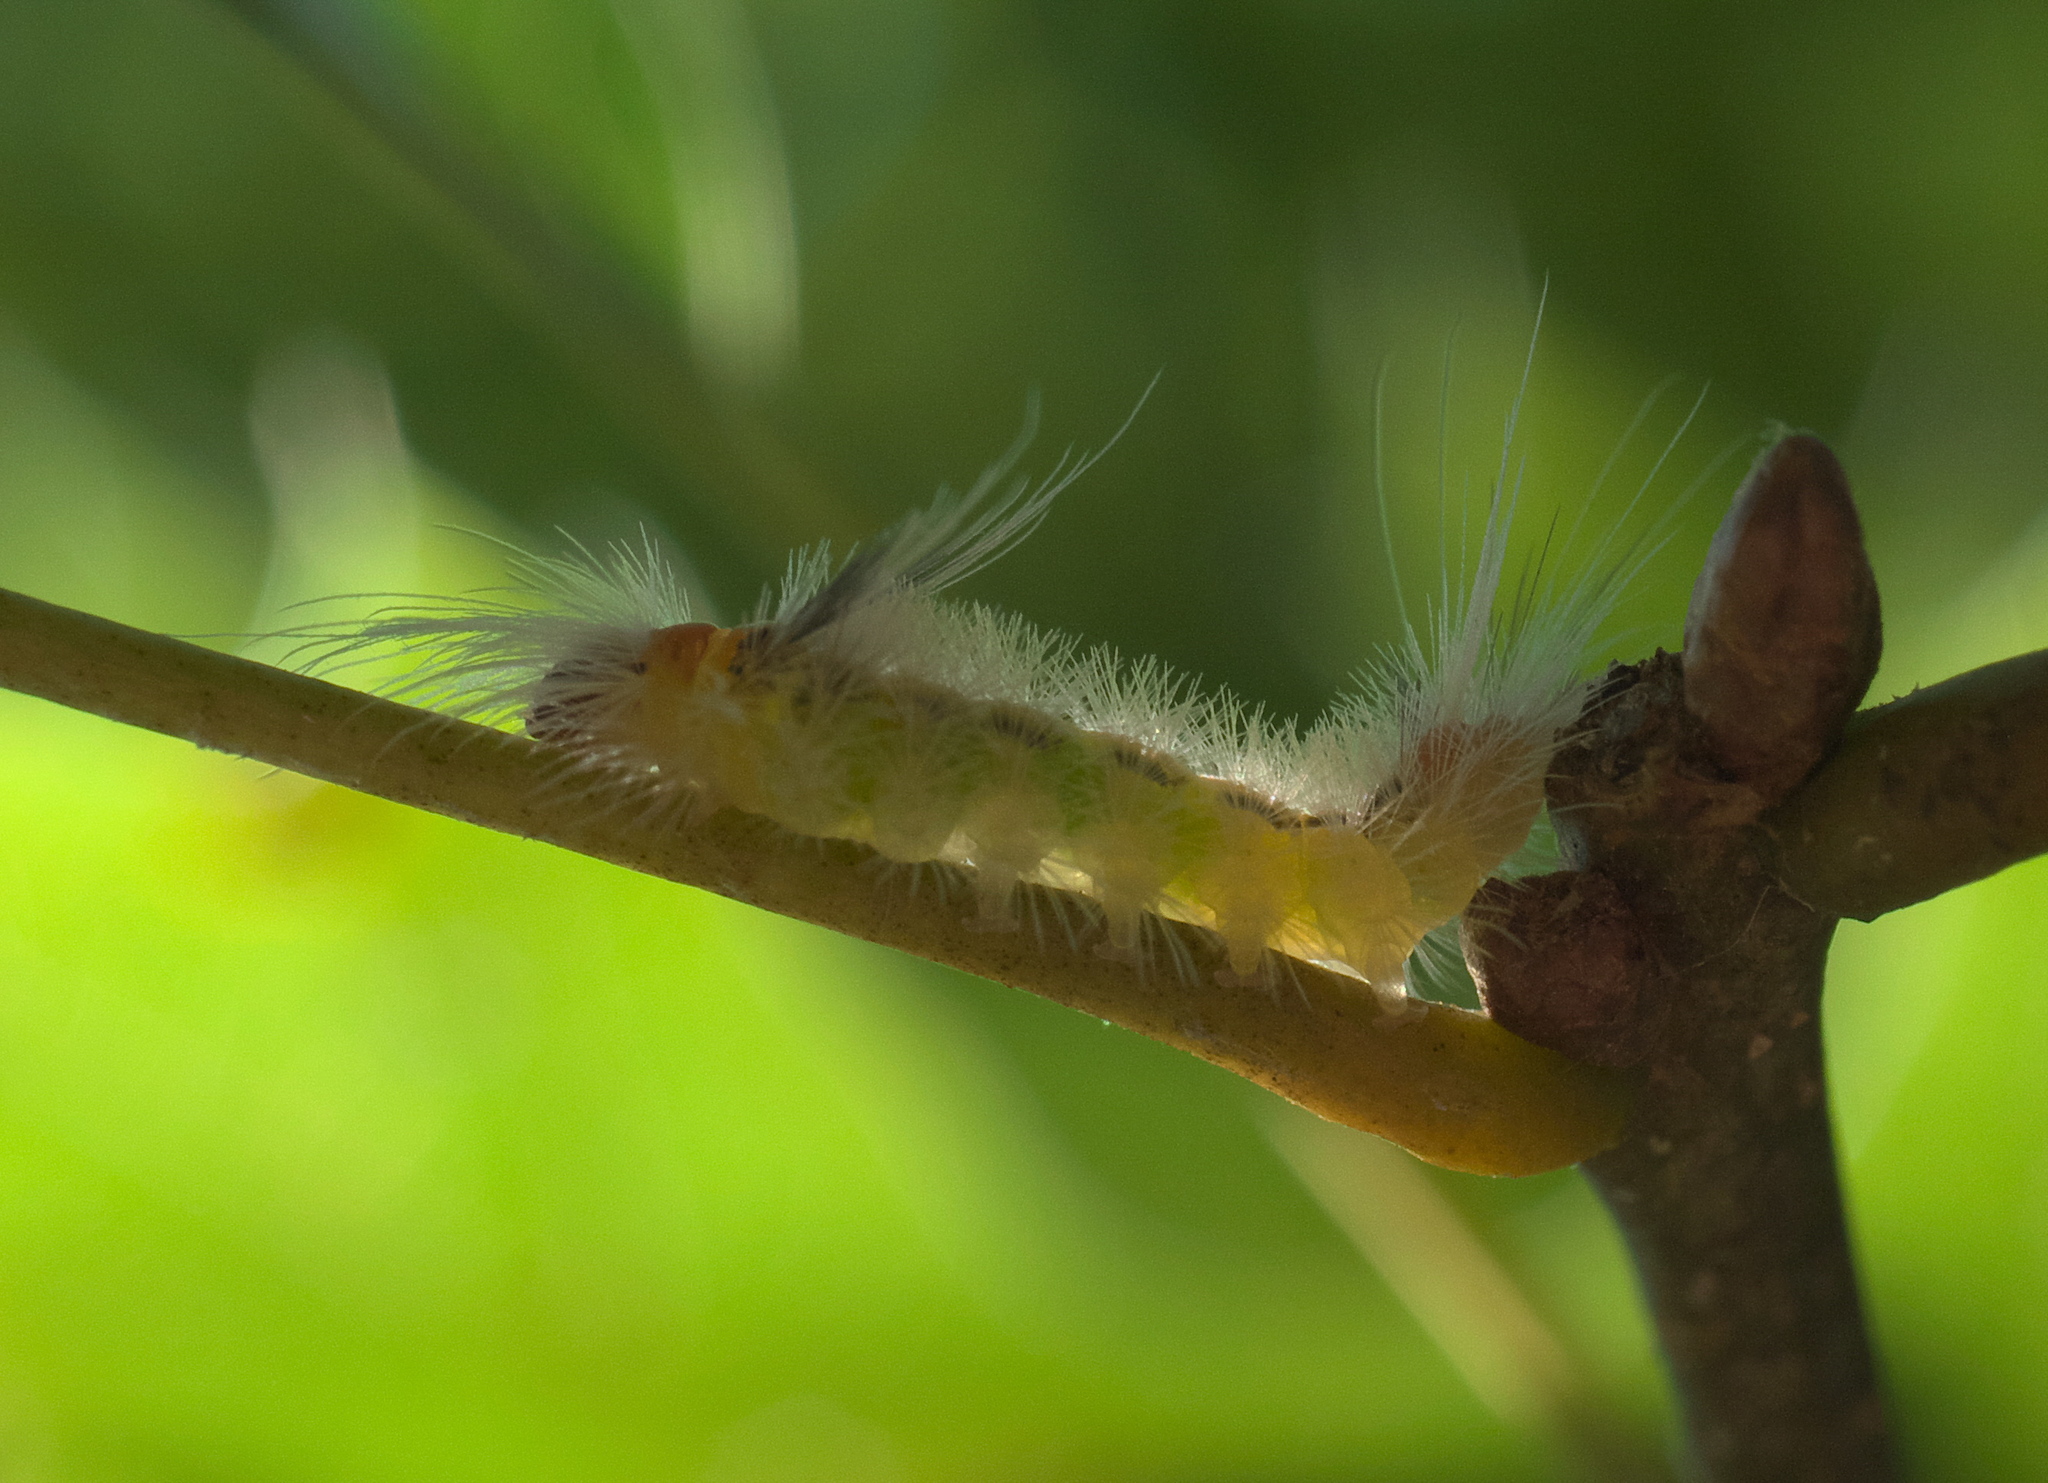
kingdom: Animalia
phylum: Arthropoda
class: Insecta
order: Lepidoptera
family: Erebidae
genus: Halysidota
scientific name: Halysidota tessellaris
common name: Banded tussock moth
